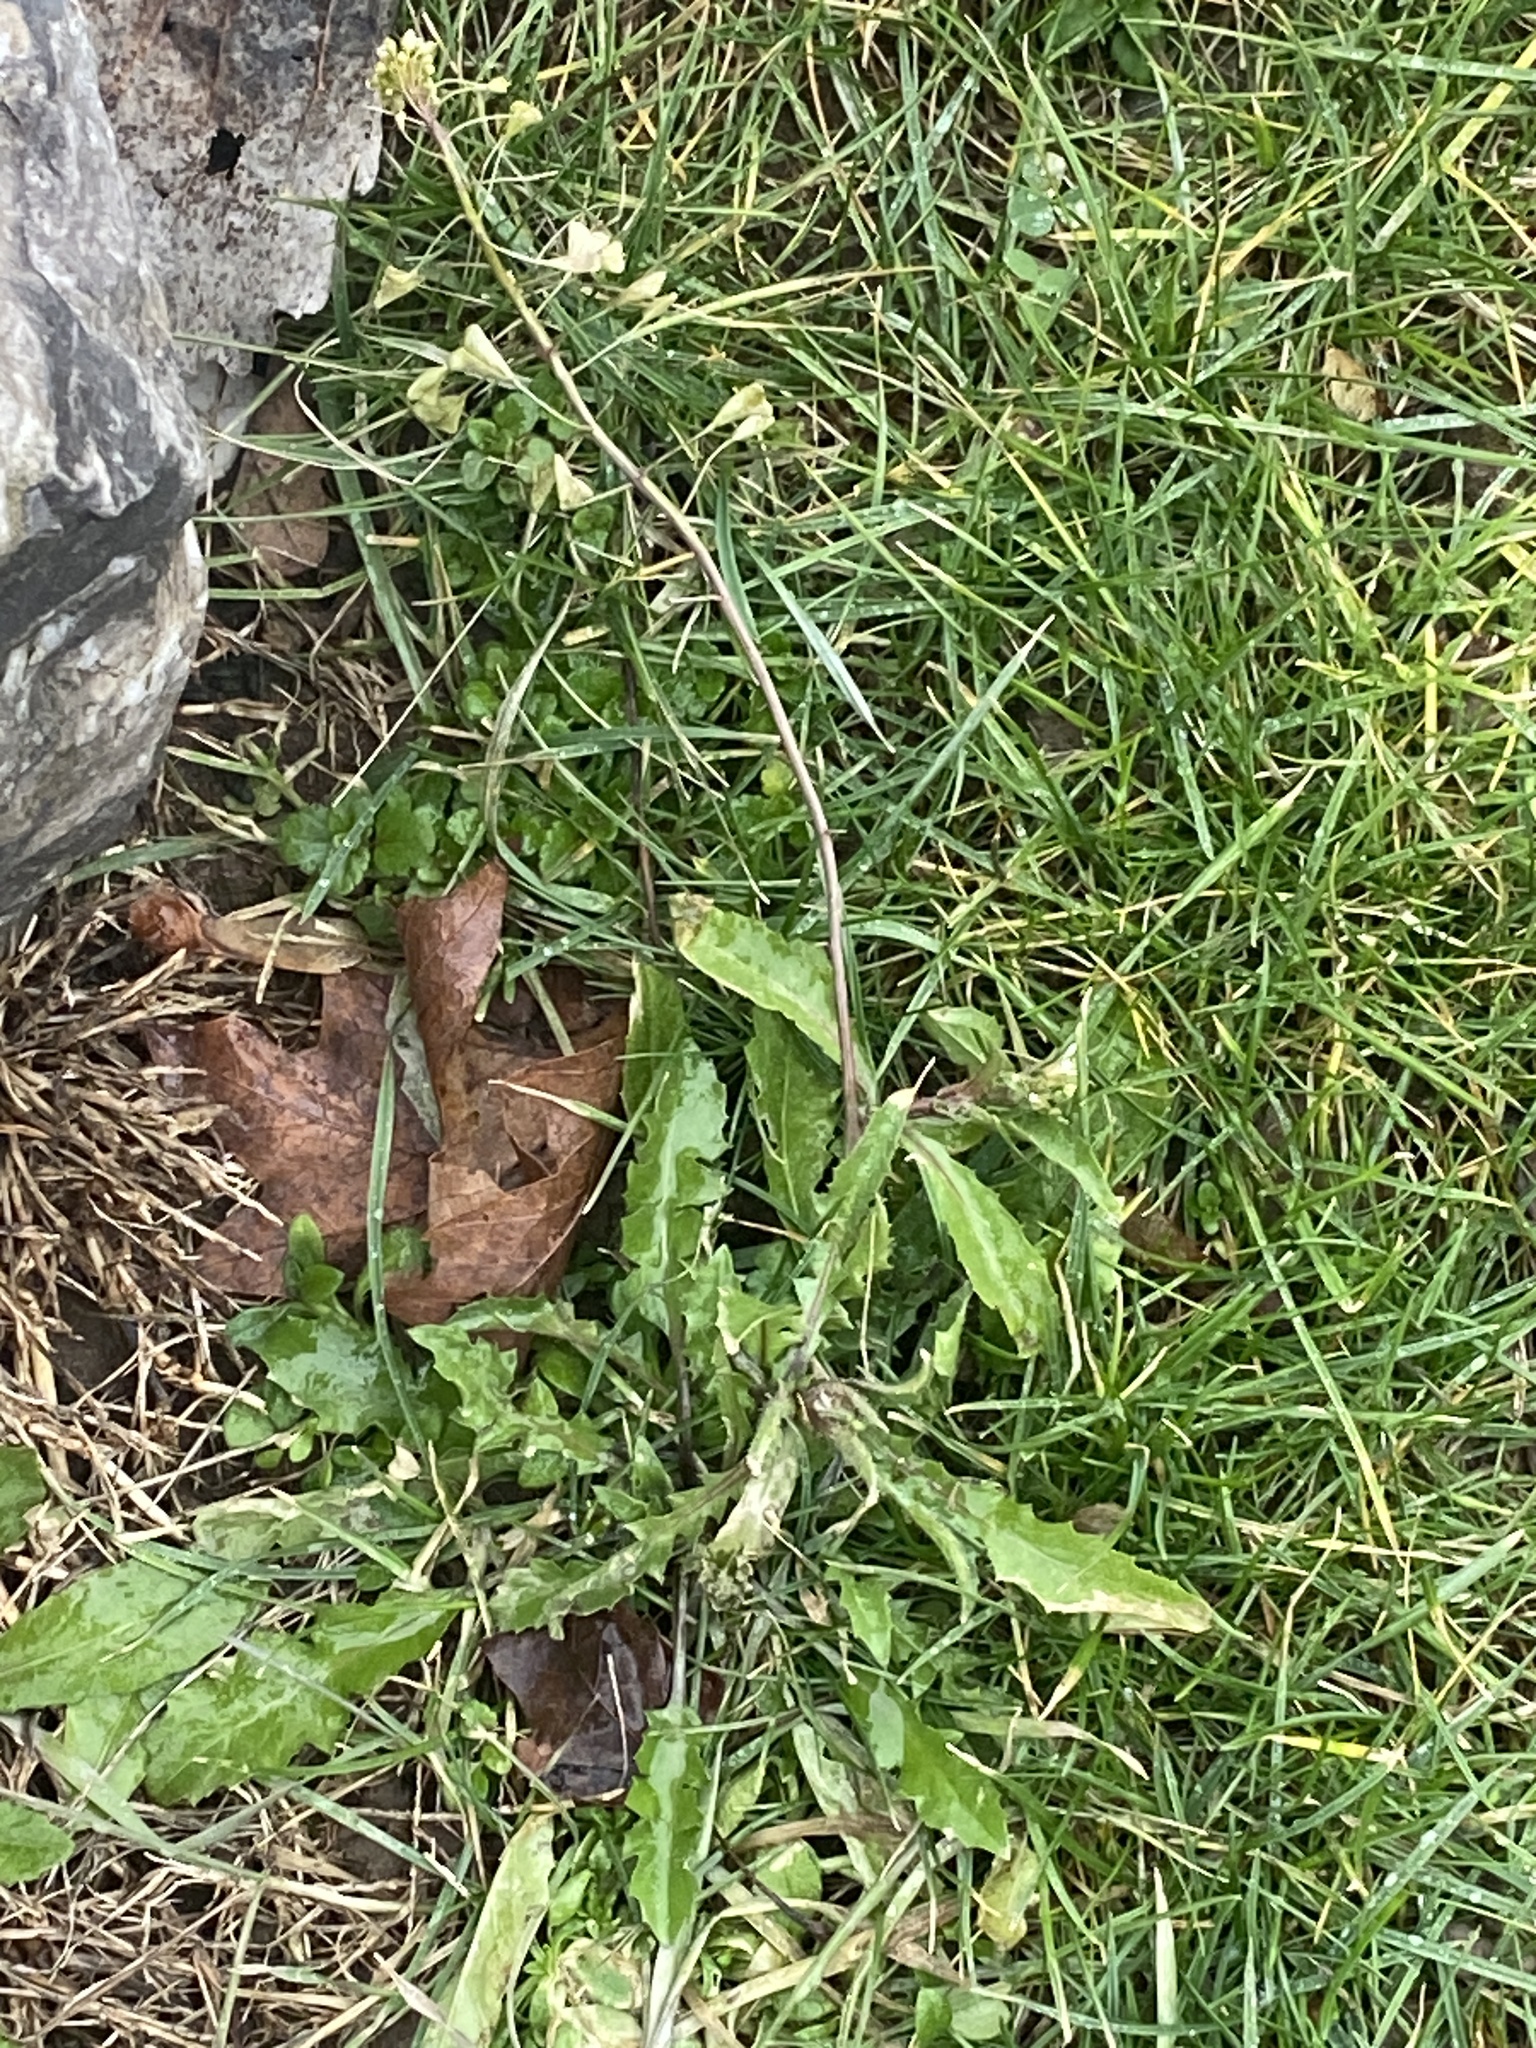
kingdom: Plantae
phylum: Tracheophyta
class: Magnoliopsida
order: Brassicales
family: Brassicaceae
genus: Capsella
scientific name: Capsella bursa-pastoris
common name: Shepherd's purse
